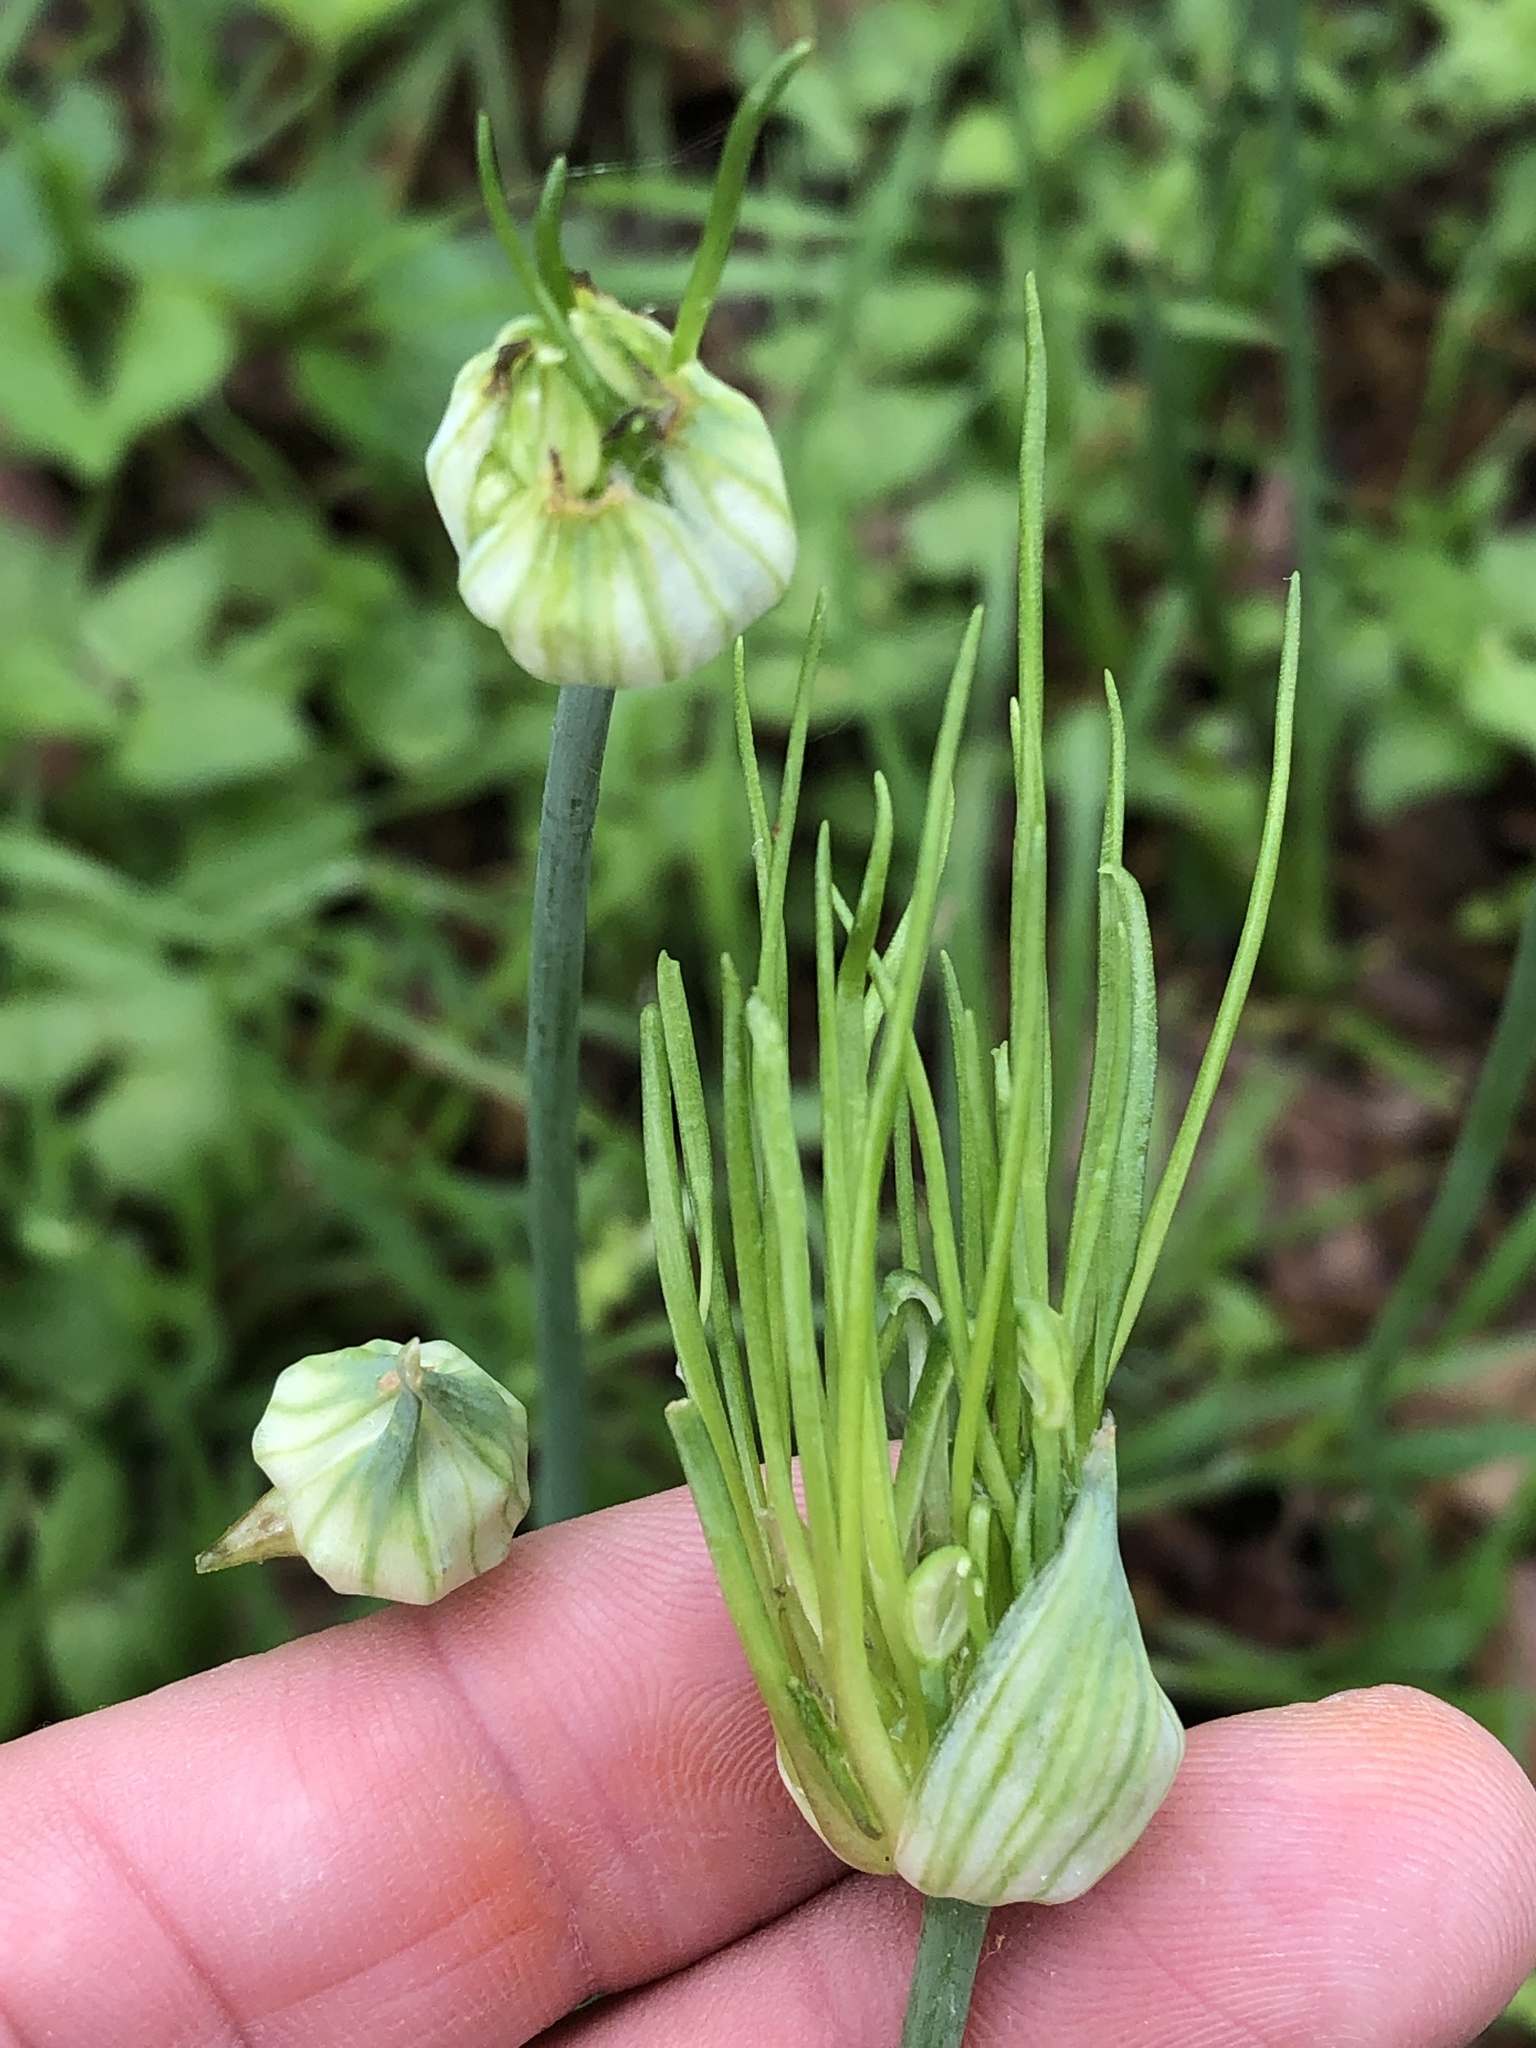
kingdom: Plantae
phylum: Tracheophyta
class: Liliopsida
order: Asparagales
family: Amaryllidaceae
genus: Allium
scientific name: Allium canadense
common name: Meadow garlic
